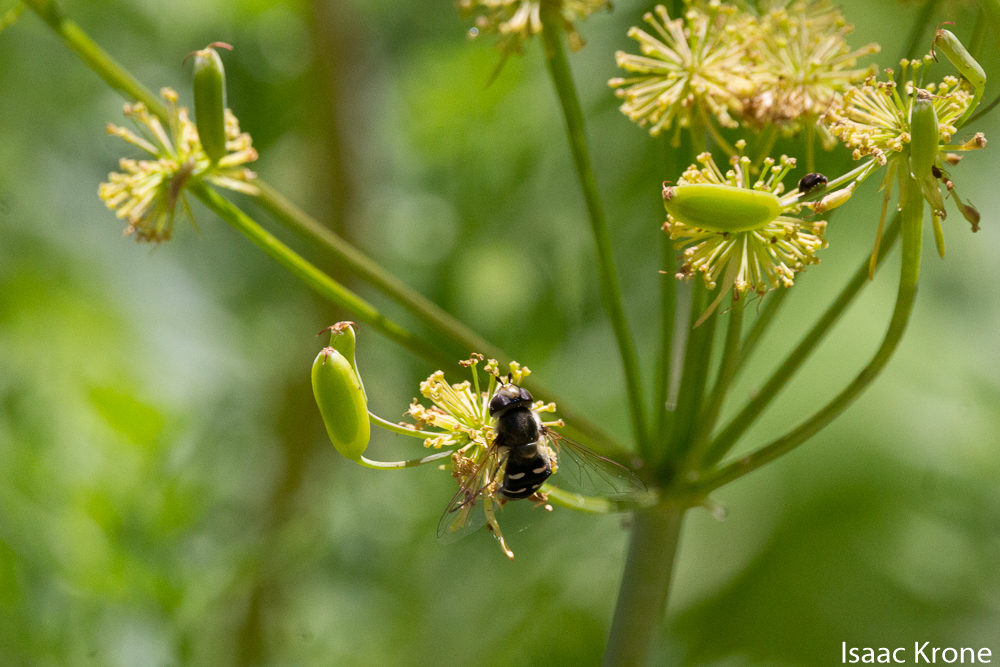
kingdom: Animalia
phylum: Arthropoda
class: Insecta
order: Diptera
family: Syrphidae
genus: Scaeva
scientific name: Scaeva affinis
